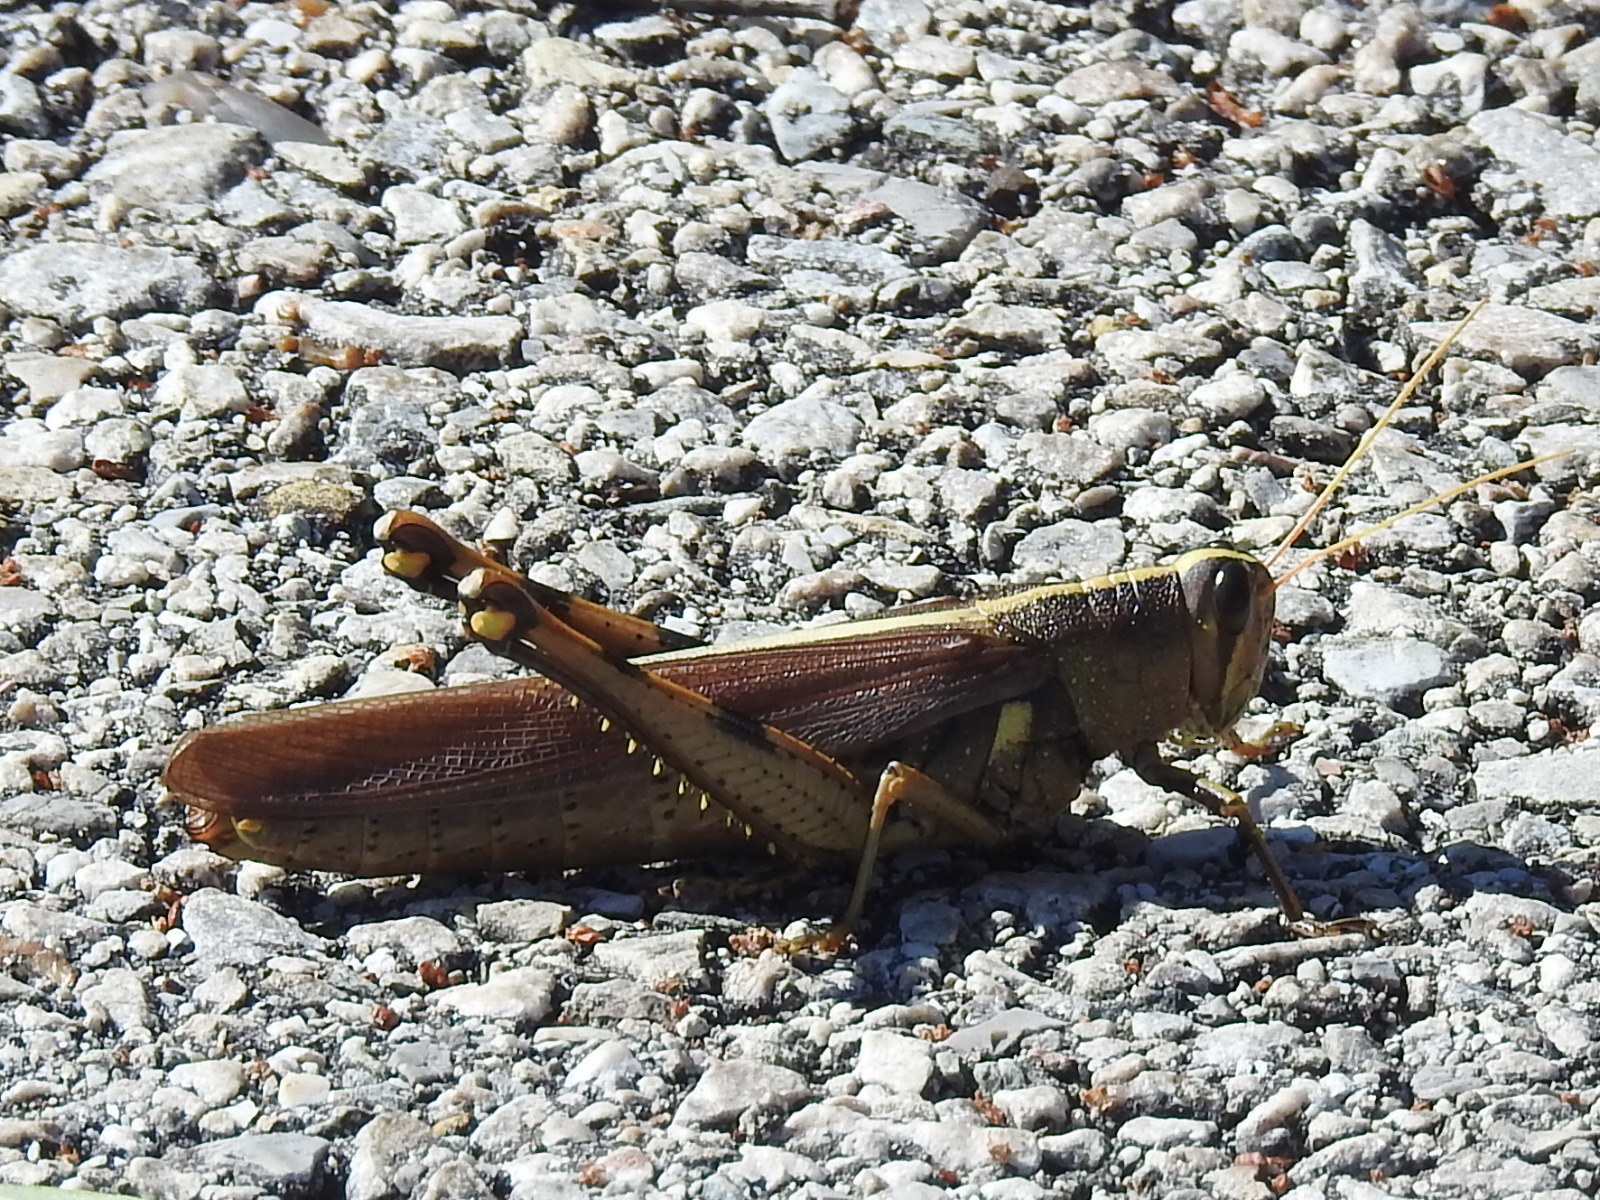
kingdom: Animalia
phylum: Arthropoda
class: Insecta
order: Orthoptera
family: Acrididae
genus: Schistocerca
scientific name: Schistocerca obscura
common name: Obscure bird grasshopper
